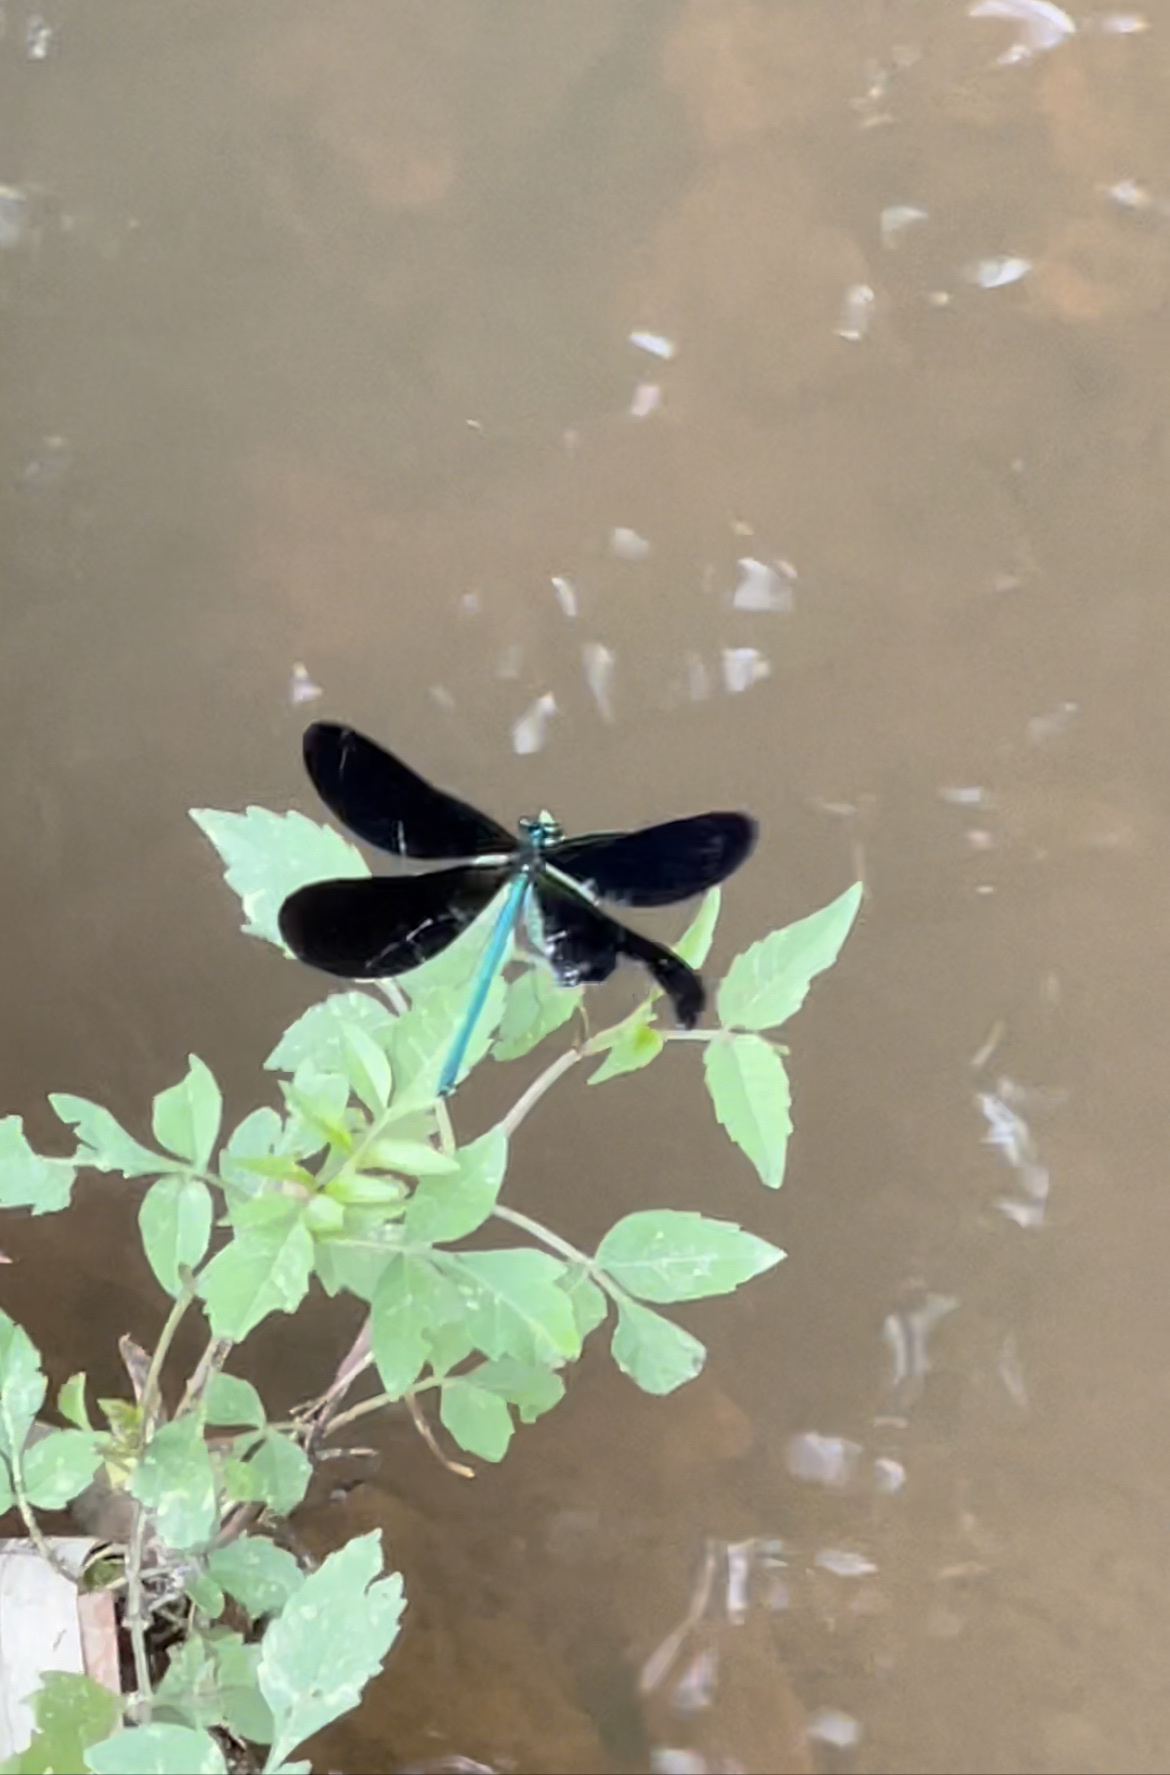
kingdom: Animalia
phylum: Arthropoda
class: Insecta
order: Odonata
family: Calopterygidae
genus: Calopteryx
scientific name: Calopteryx maculata
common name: Ebony jewelwing
